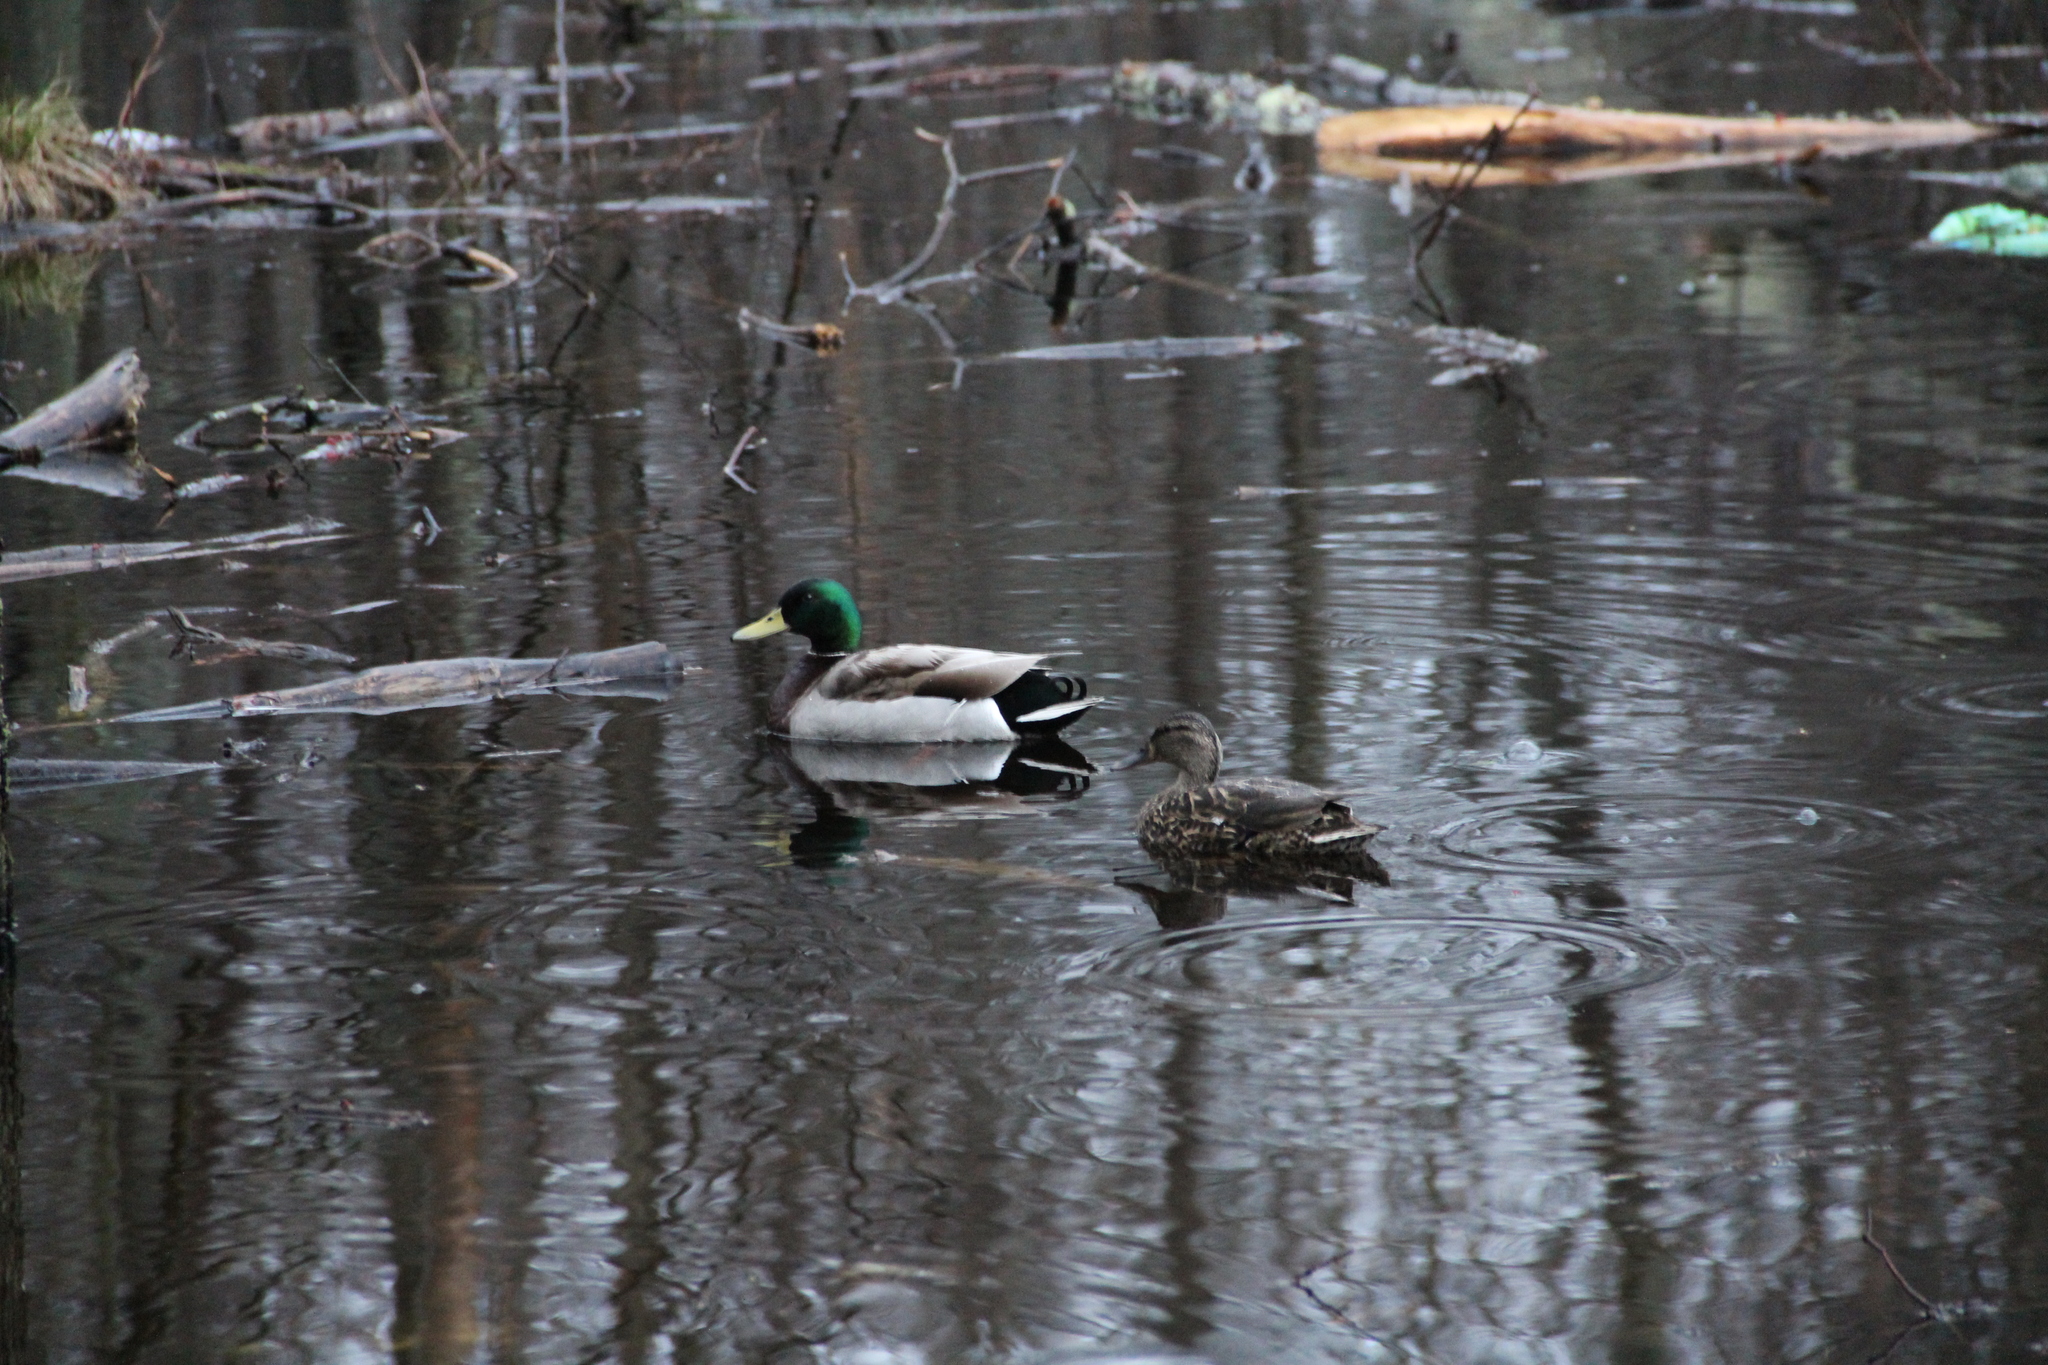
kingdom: Animalia
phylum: Chordata
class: Aves
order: Anseriformes
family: Anatidae
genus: Anas
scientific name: Anas platyrhynchos
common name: Mallard
